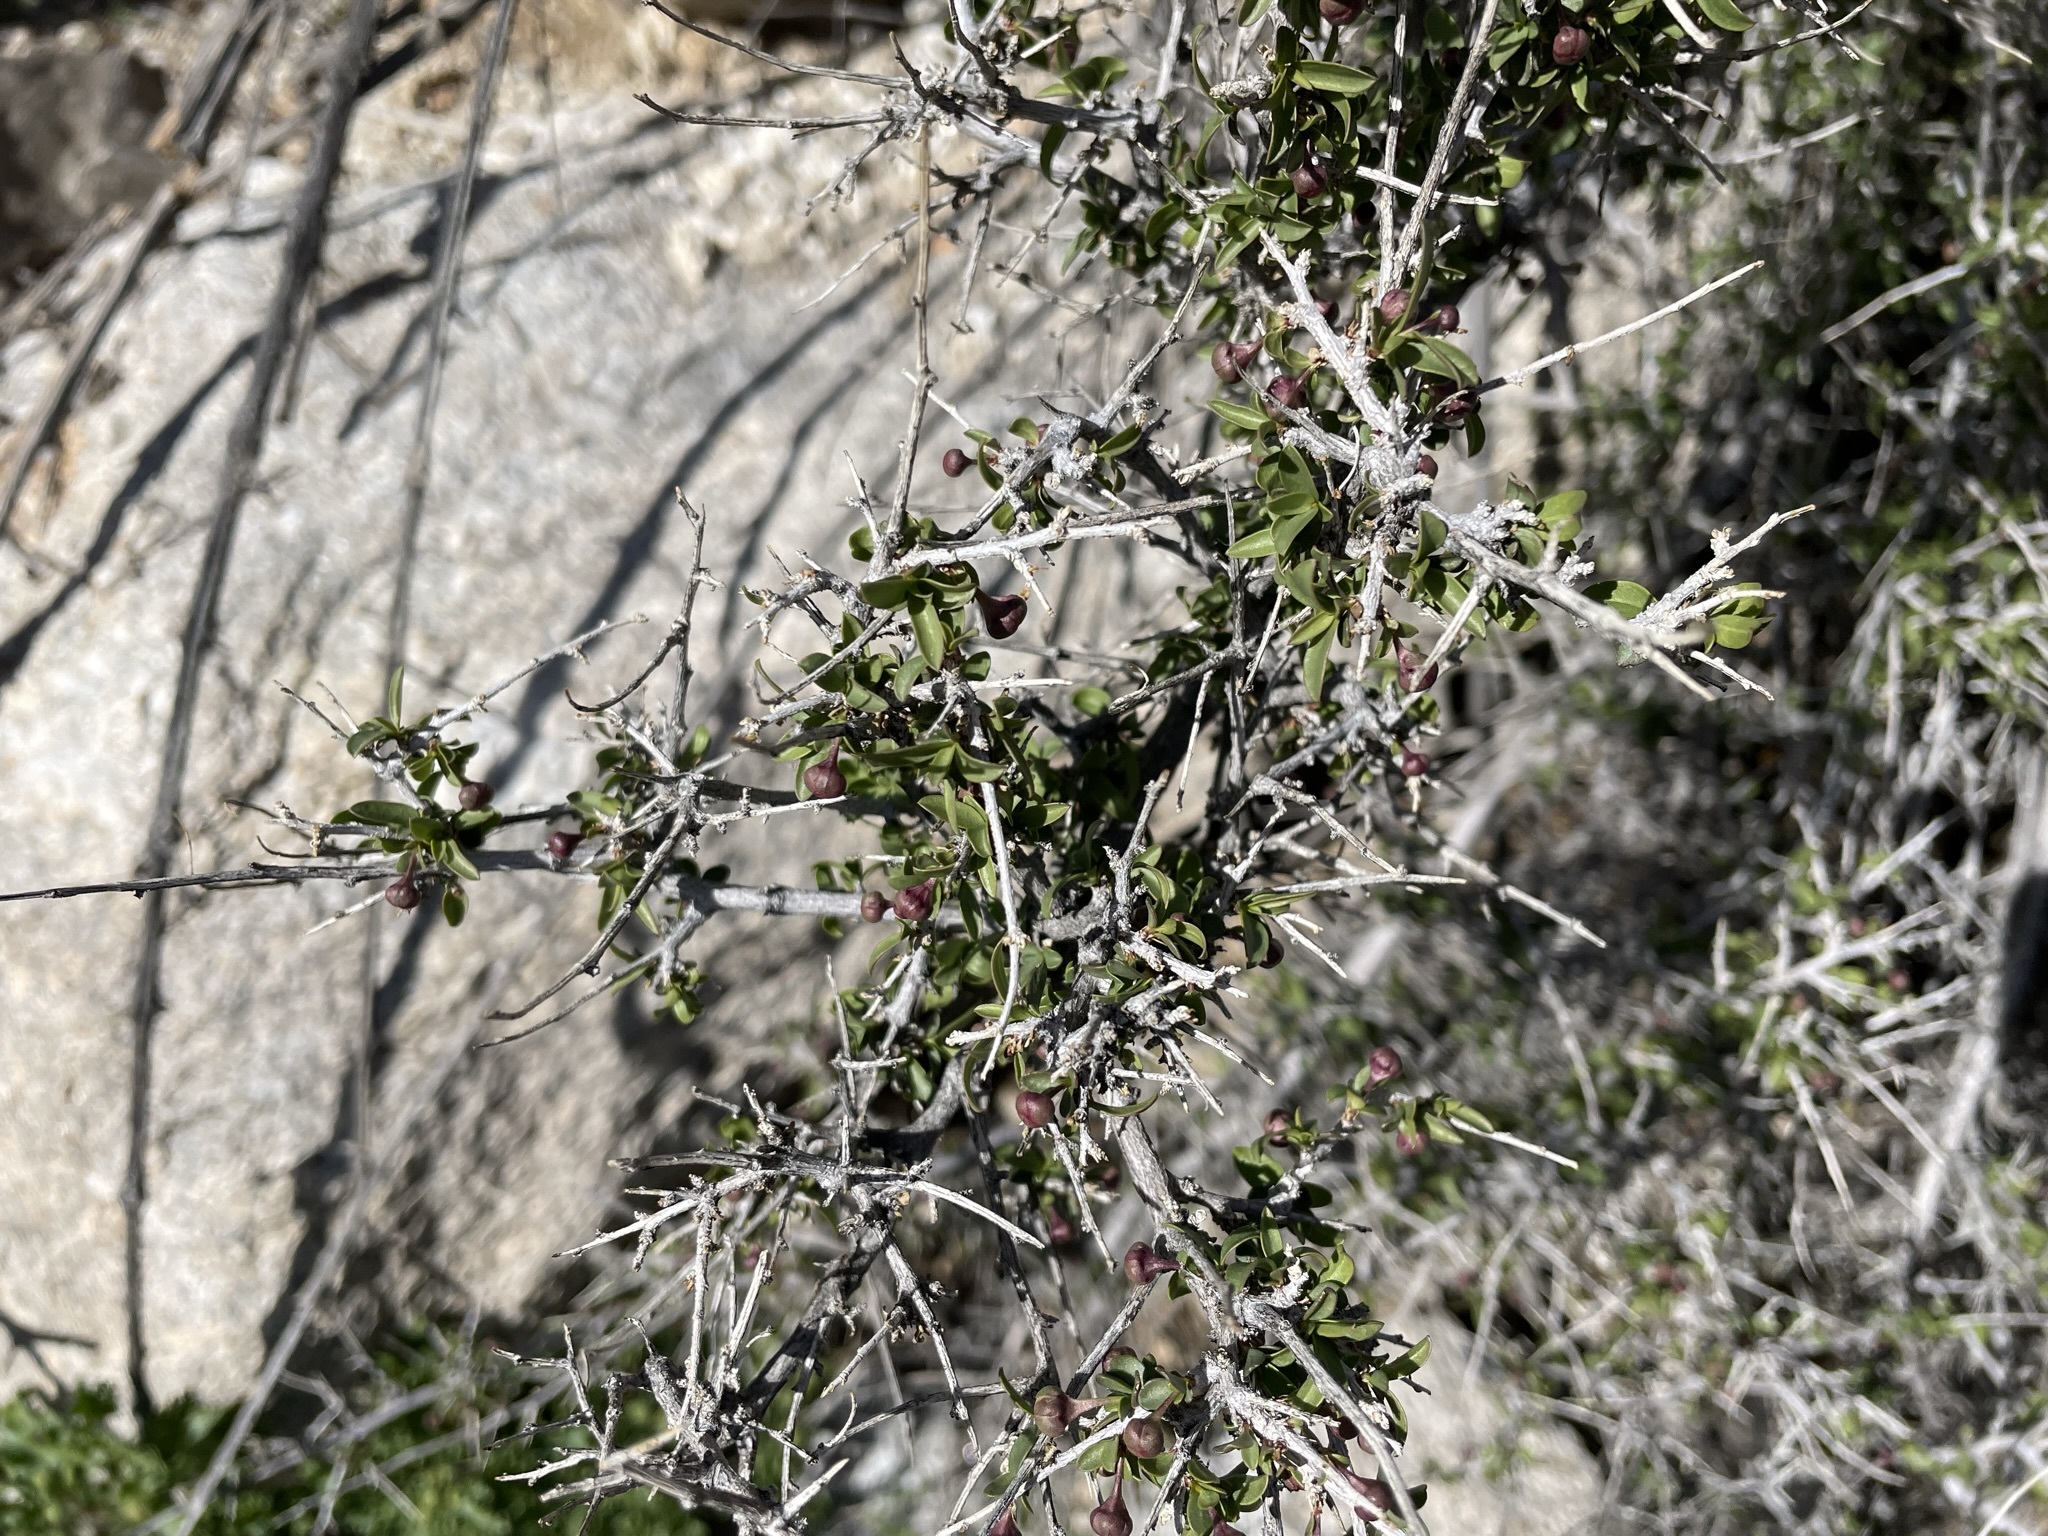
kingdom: Plantae
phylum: Tracheophyta
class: Magnoliopsida
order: Crossosomatales
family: Crossosomataceae
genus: Crossosoma
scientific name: Crossosoma bigelovii
